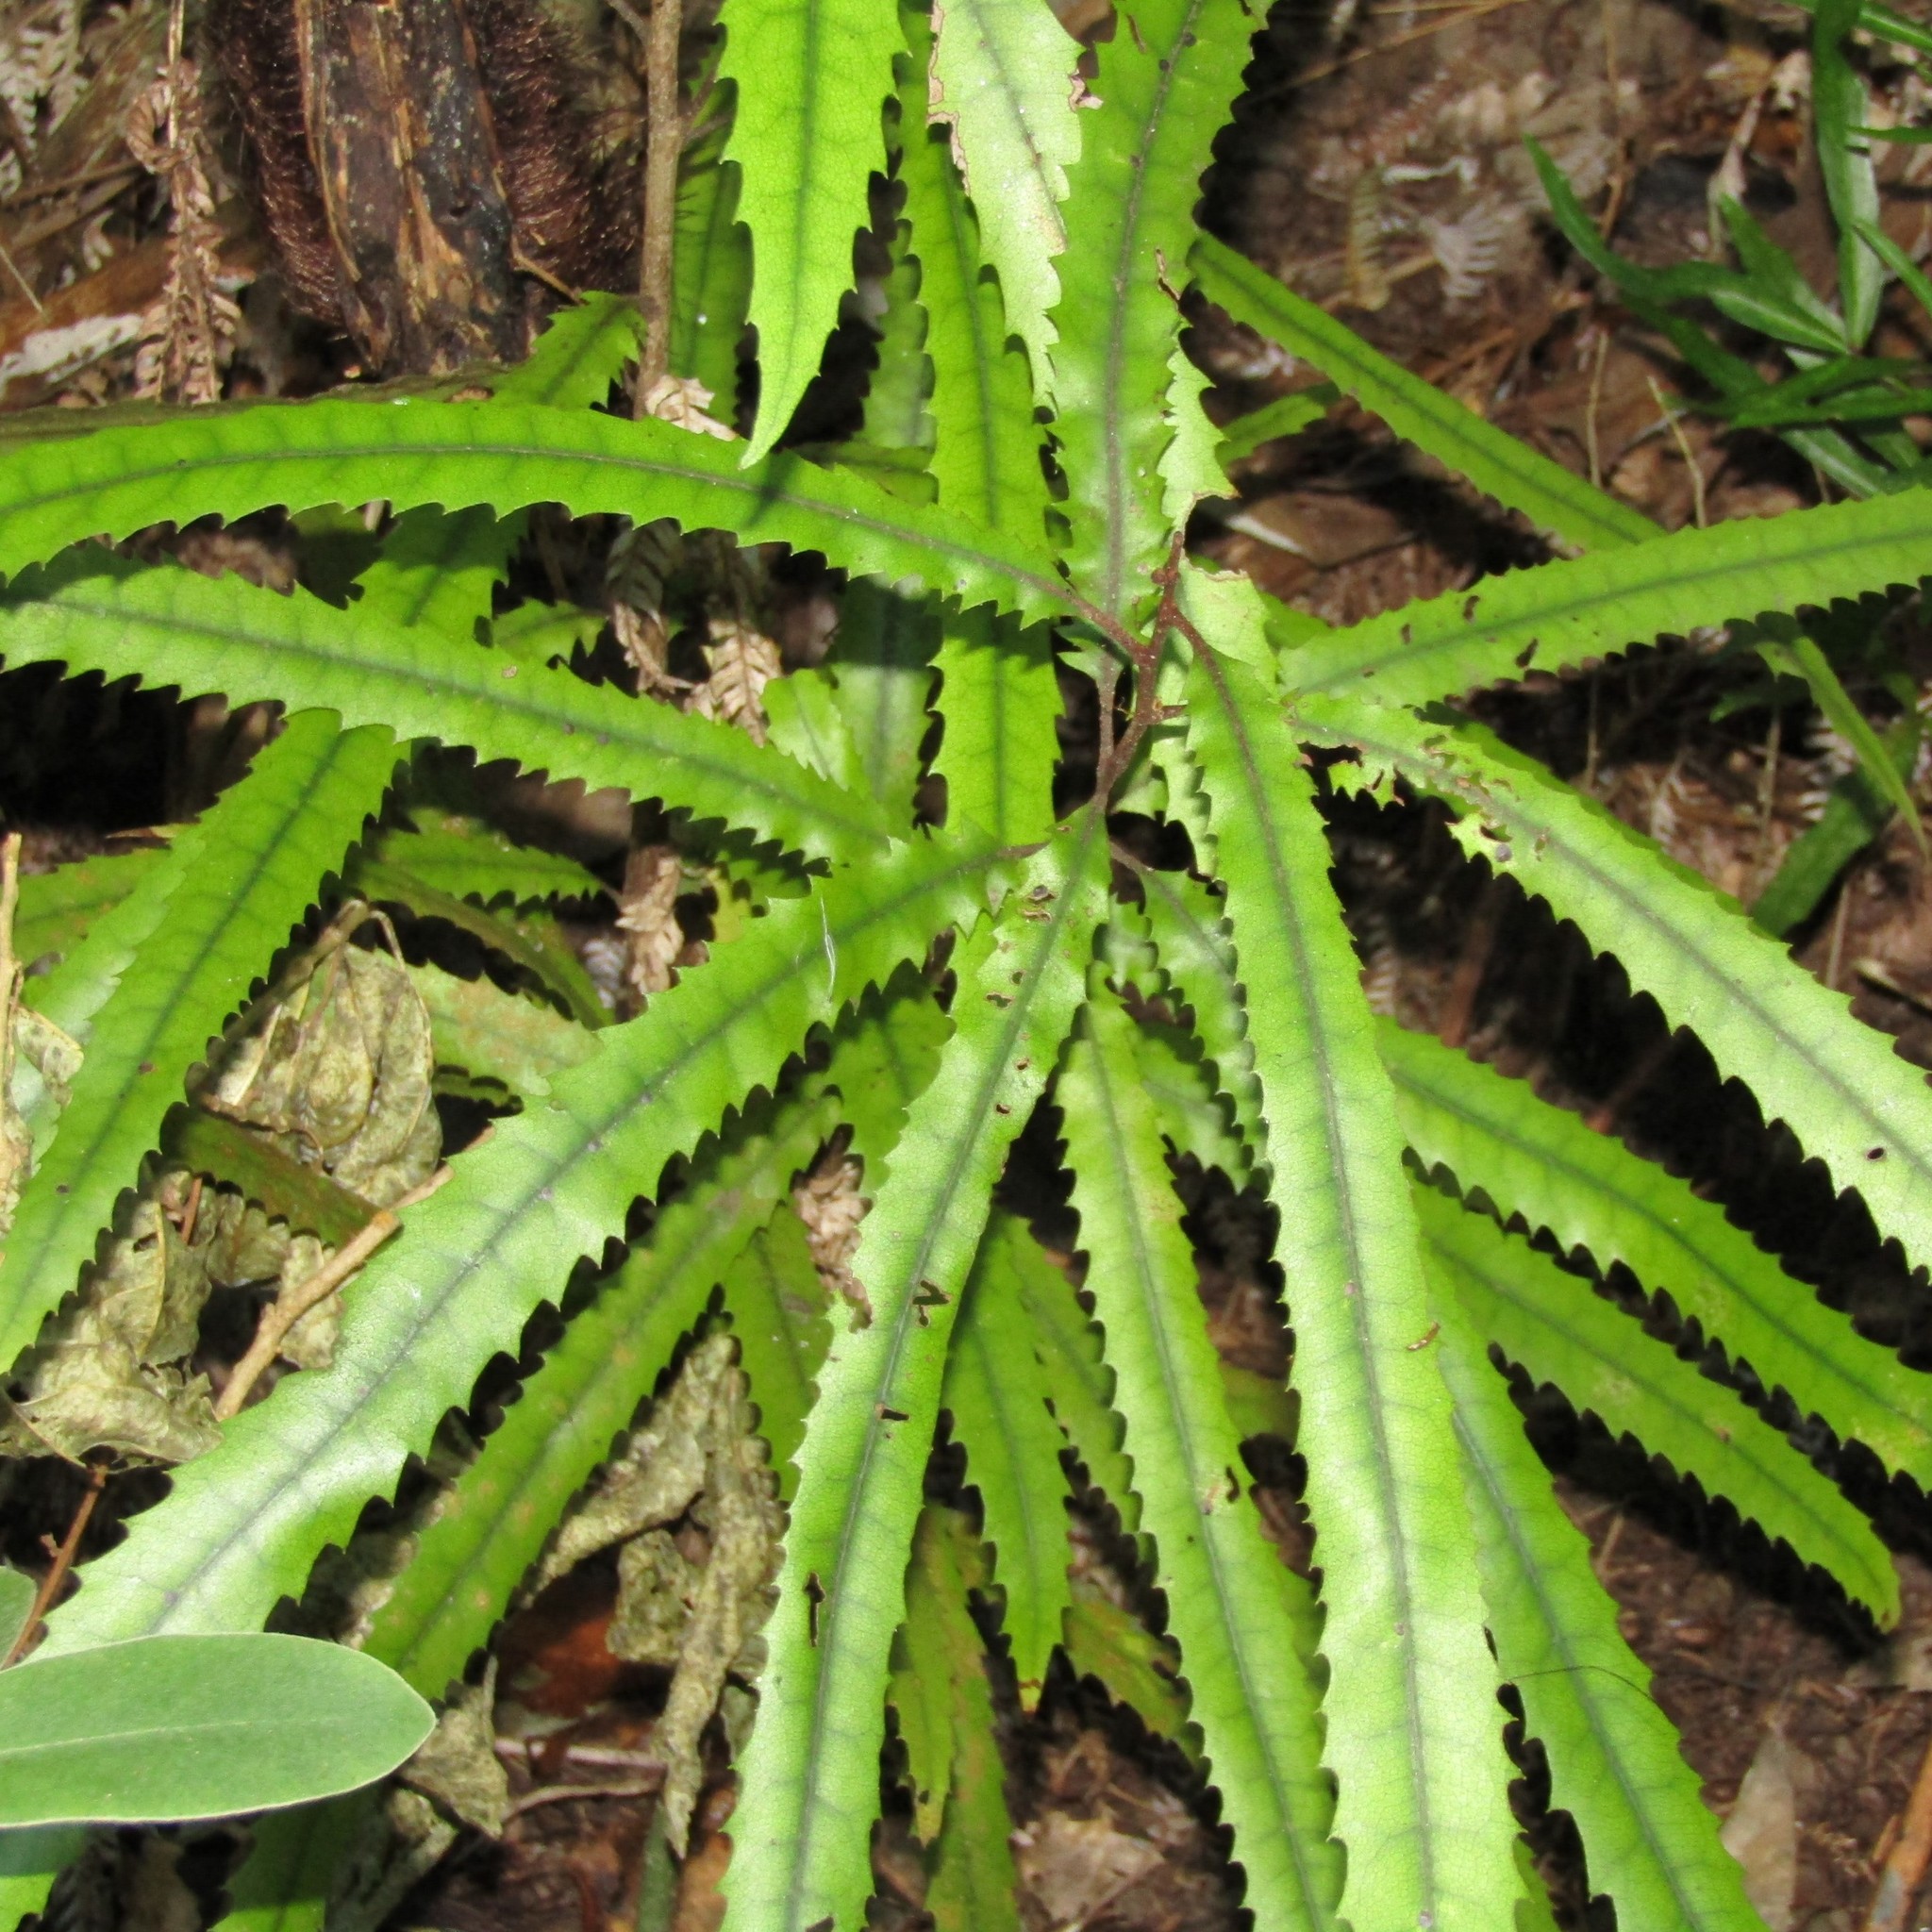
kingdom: Plantae
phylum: Tracheophyta
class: Magnoliopsida
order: Proteales
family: Proteaceae
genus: Knightia
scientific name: Knightia excelsa
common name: New zealand-honeysuckle
